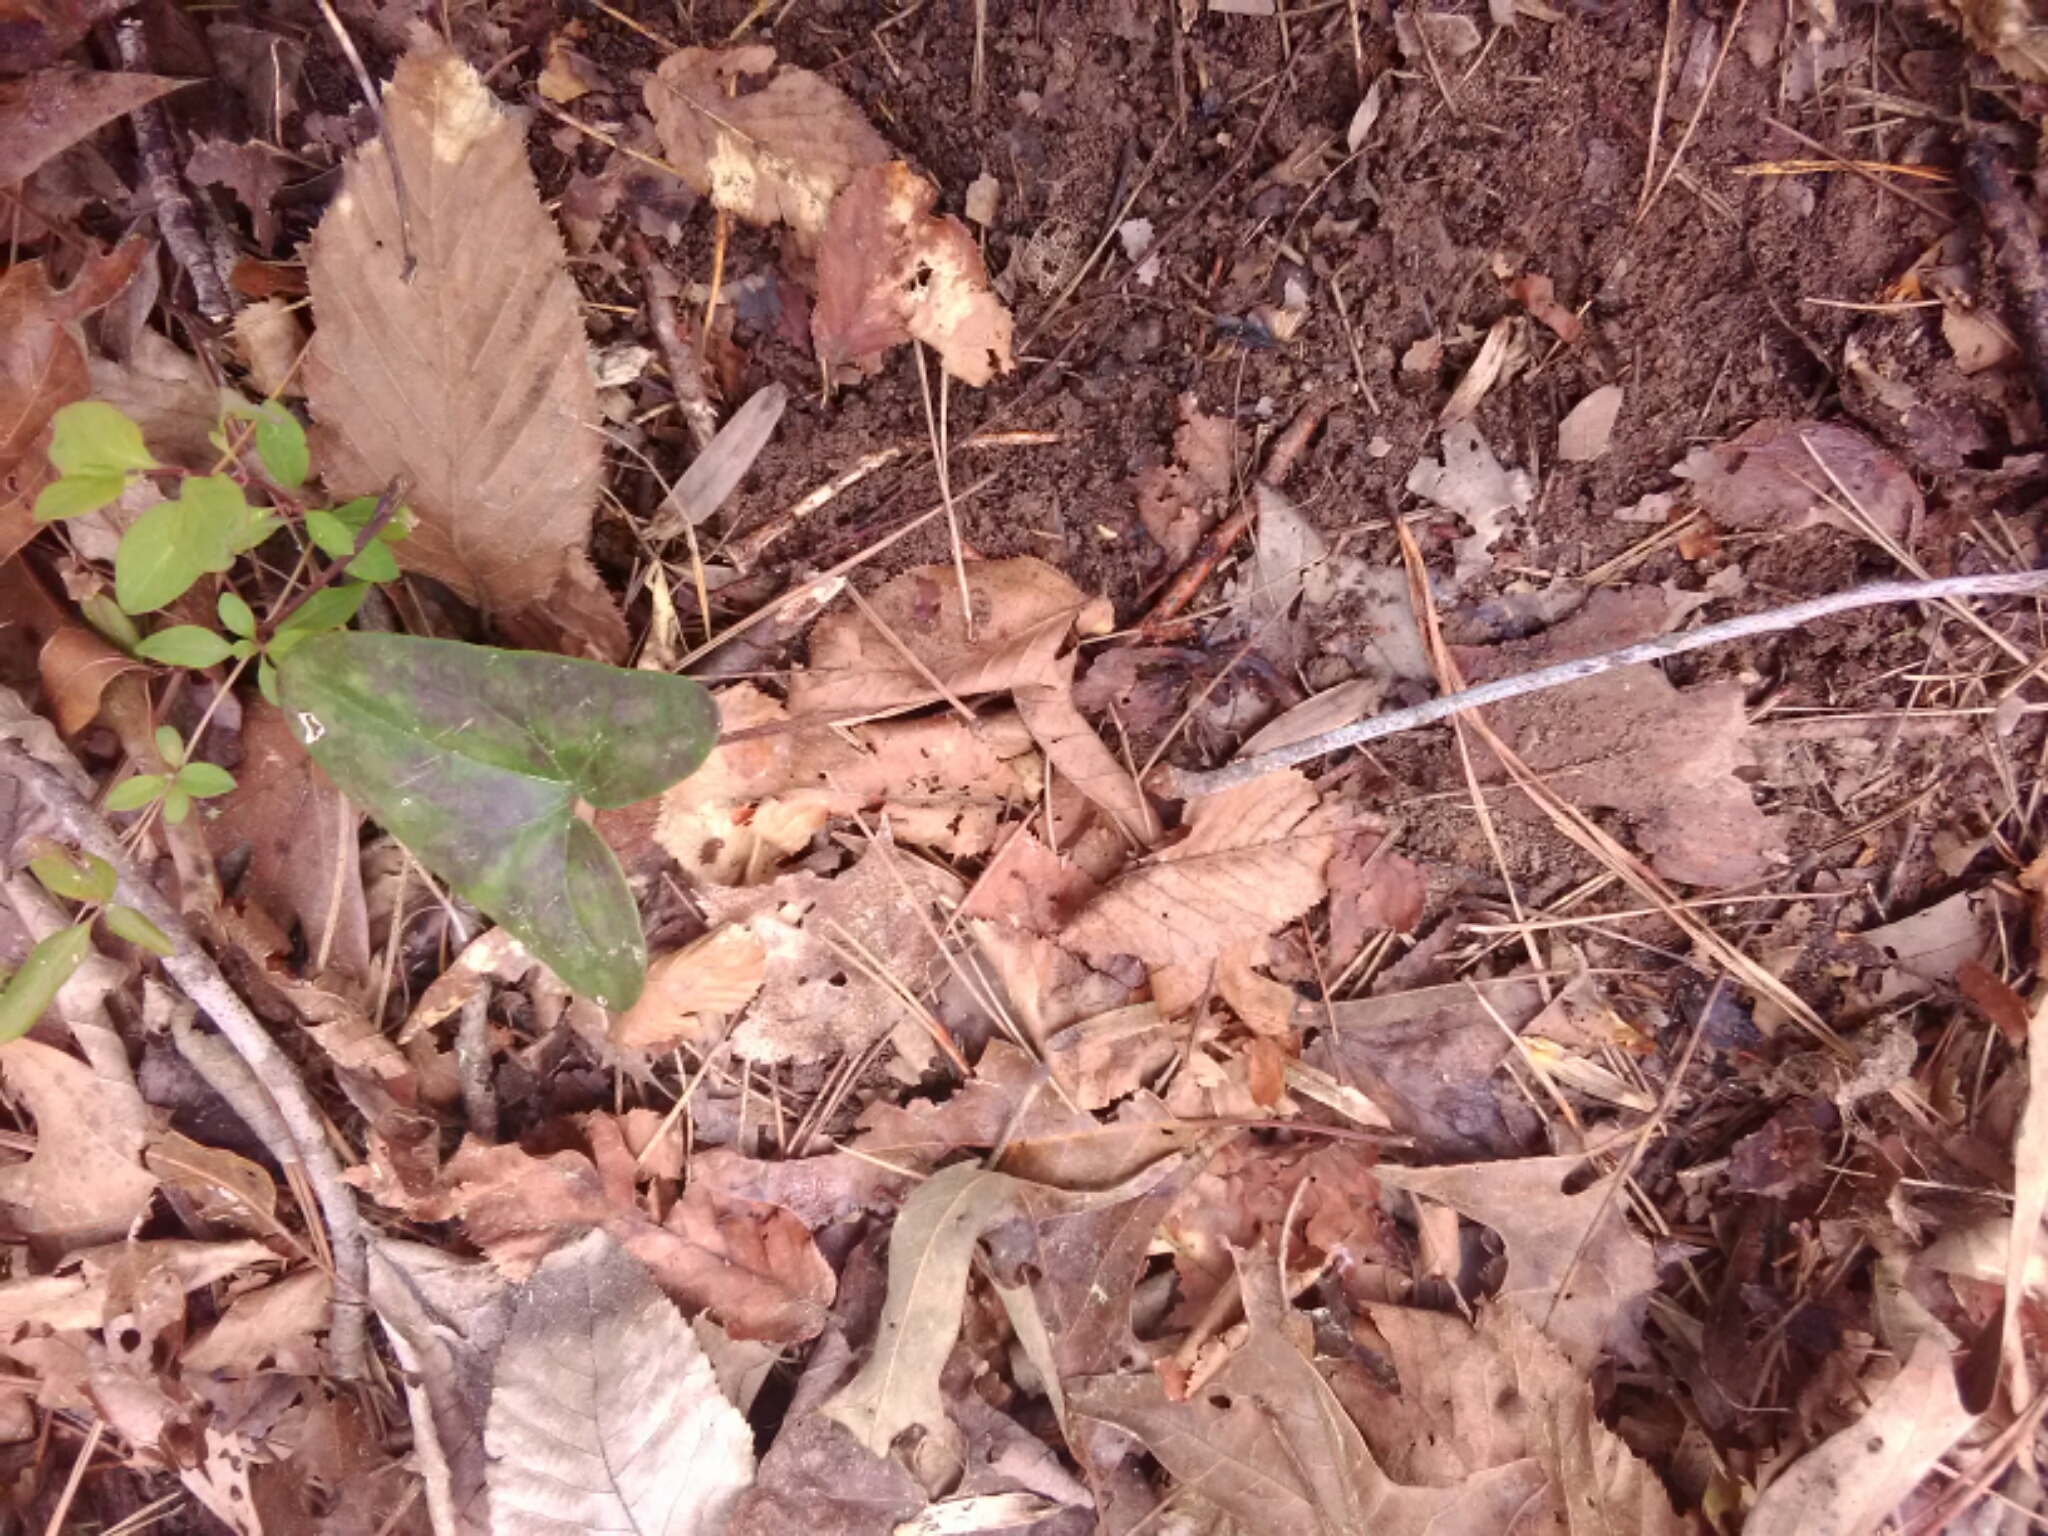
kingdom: Plantae
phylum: Tracheophyta
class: Magnoliopsida
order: Piperales
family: Aristolochiaceae
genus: Hexastylis
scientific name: Hexastylis arifolia
